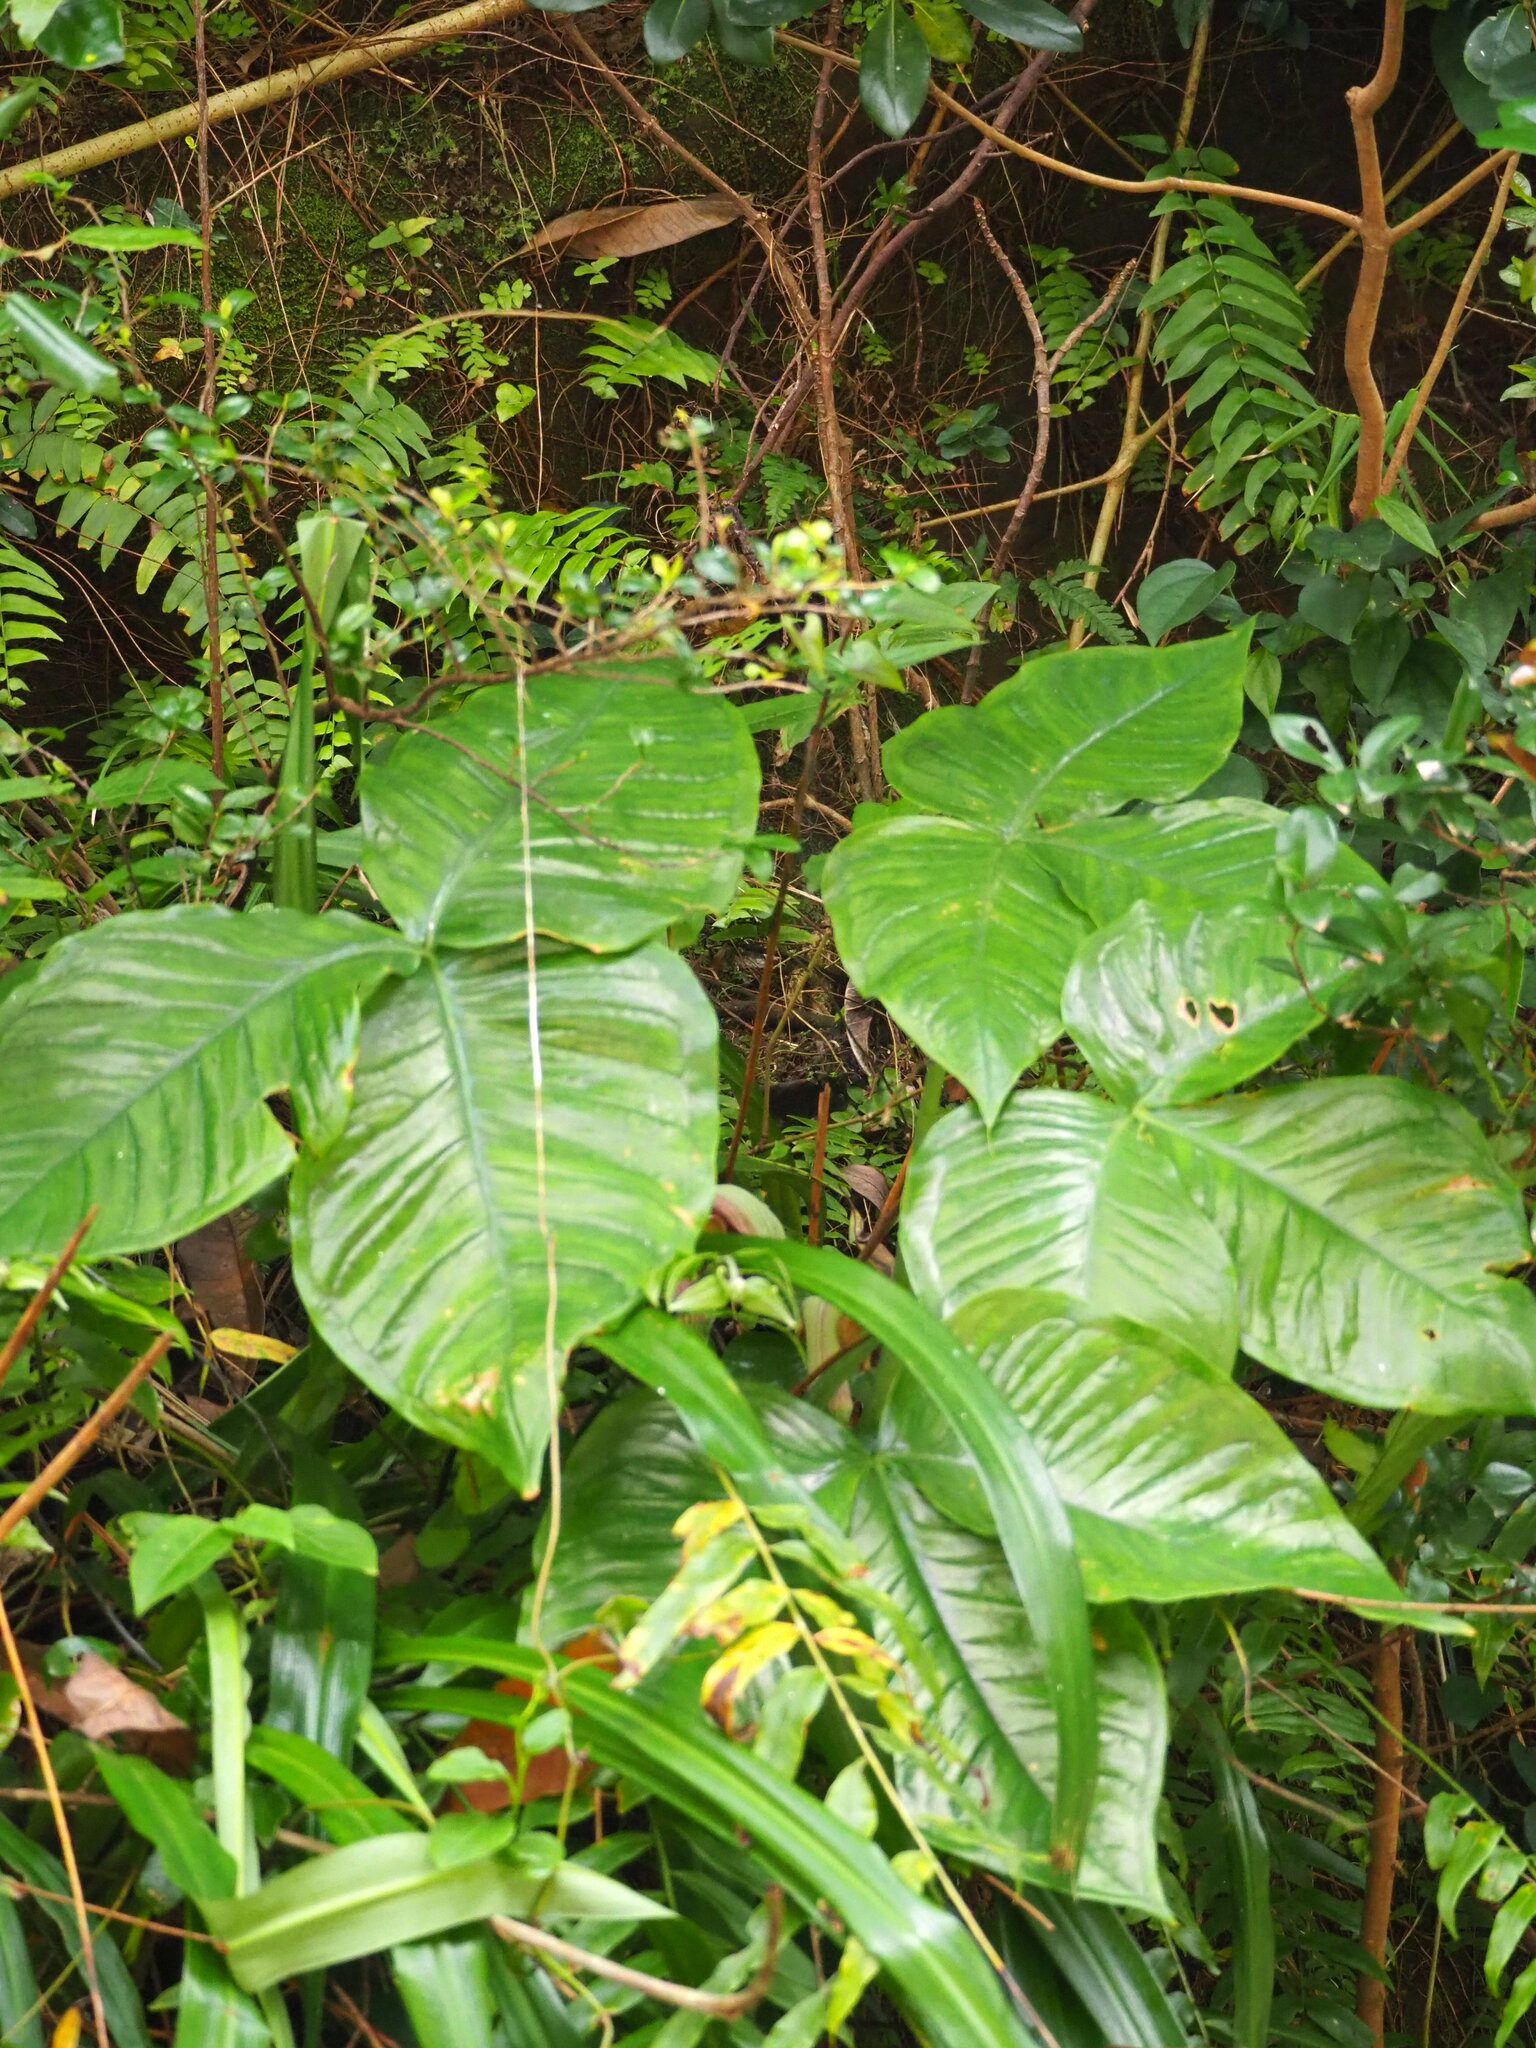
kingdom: Plantae
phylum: Tracheophyta
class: Liliopsida
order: Alismatales
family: Araceae
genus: Arisaema
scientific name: Arisaema ringens
